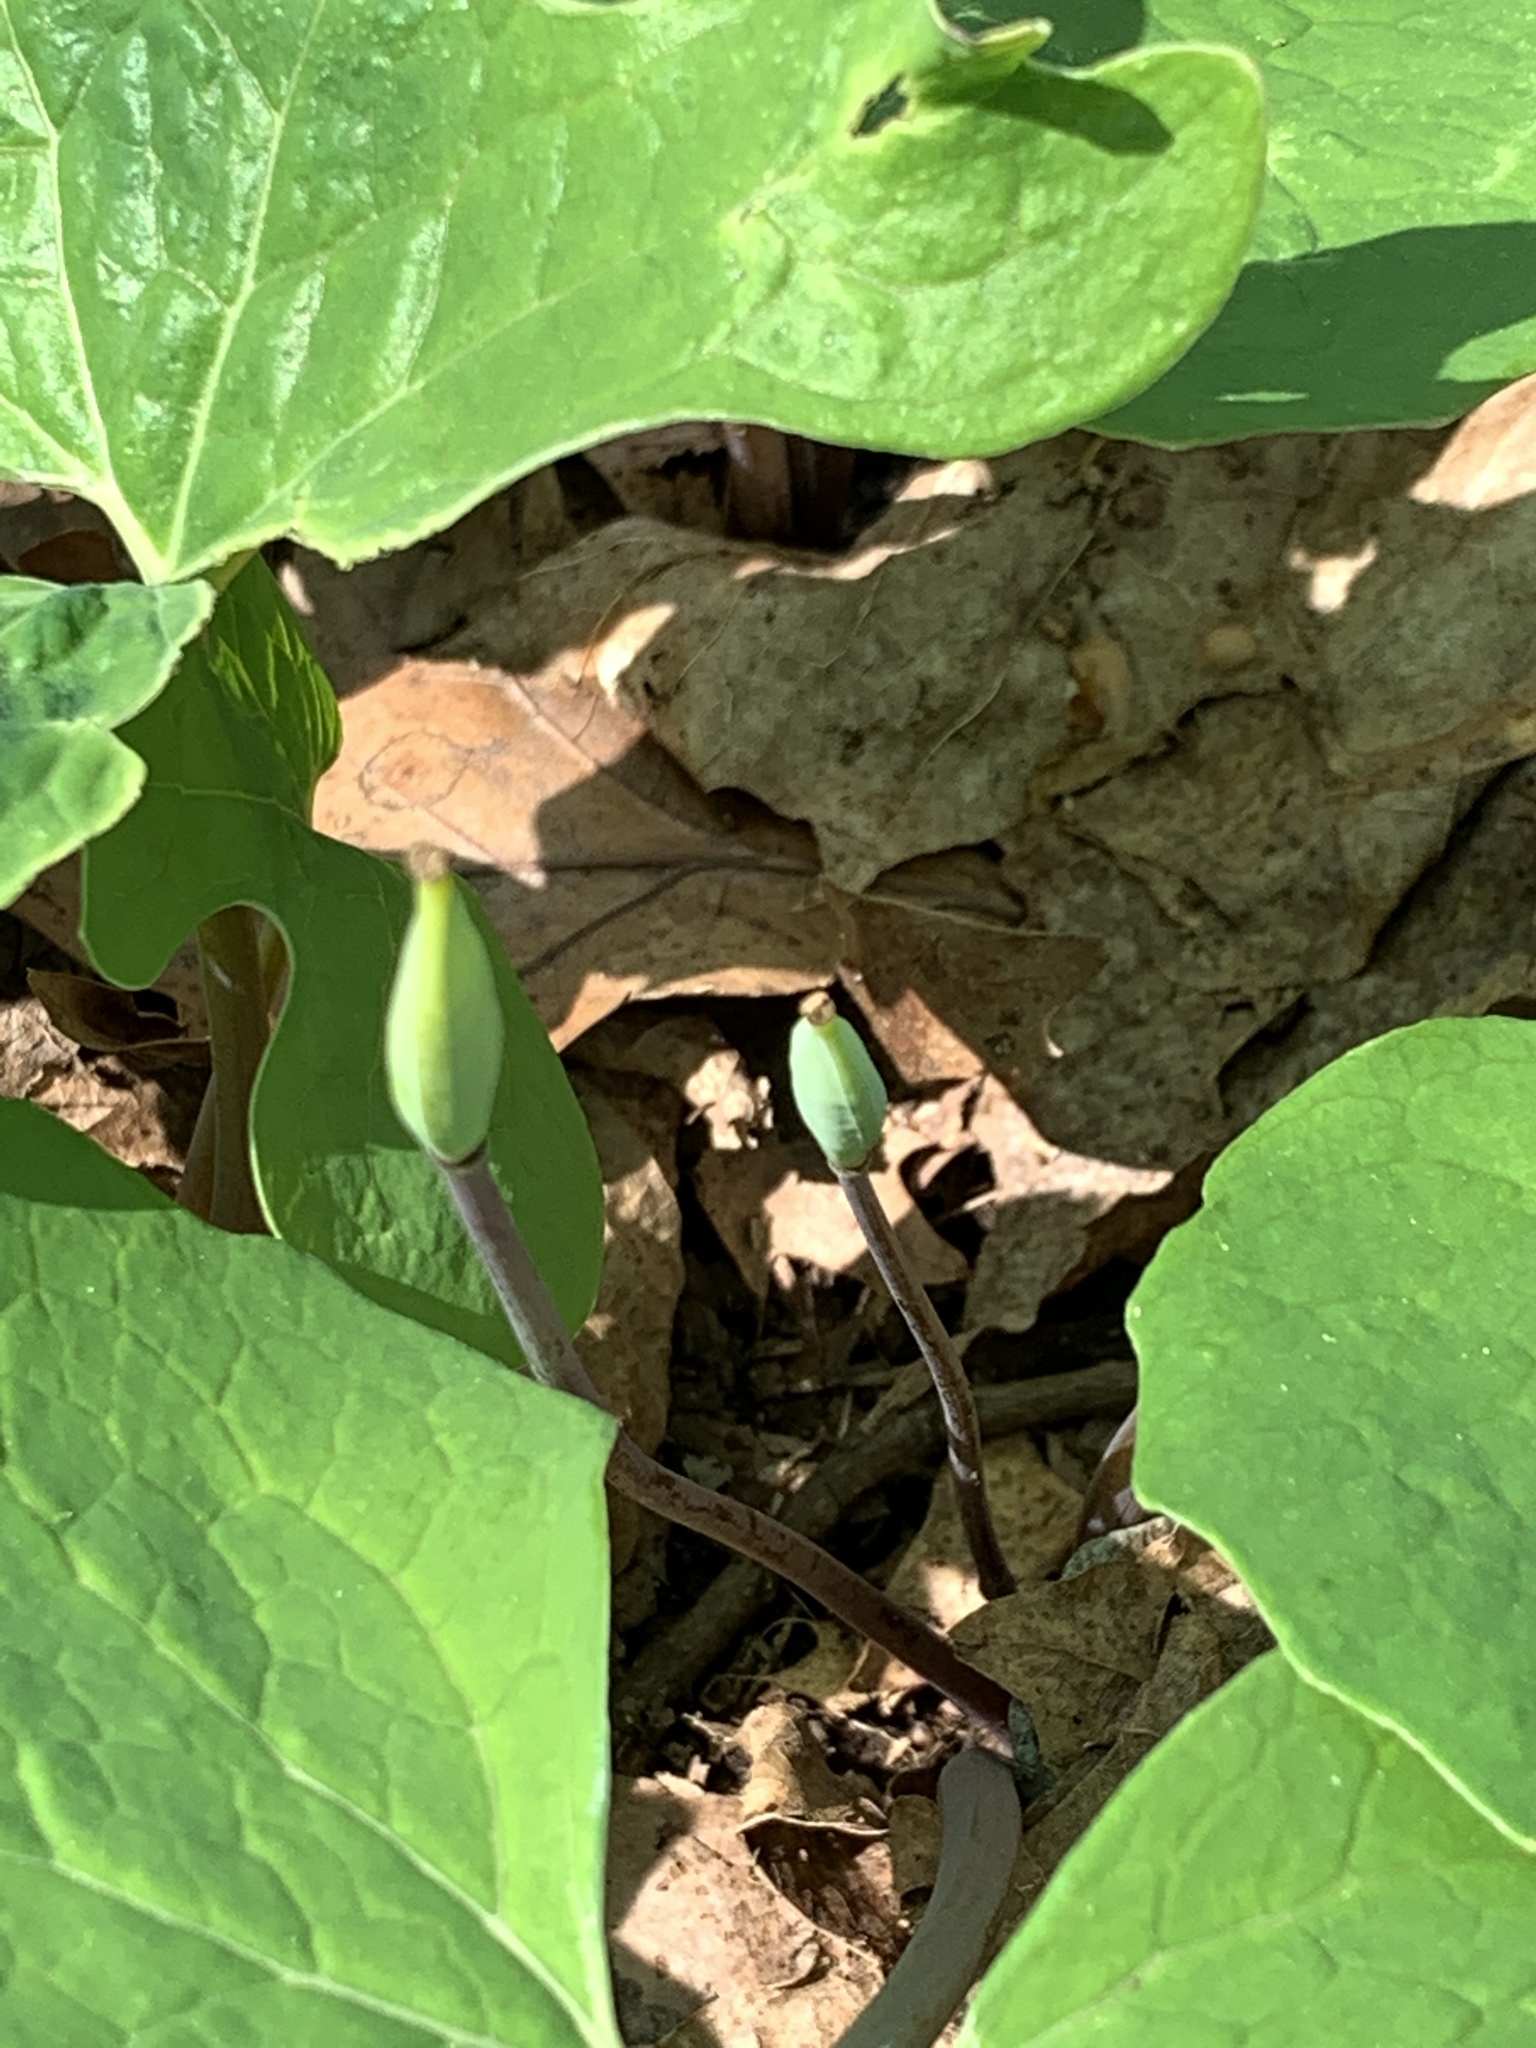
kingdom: Plantae
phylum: Tracheophyta
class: Magnoliopsida
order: Ranunculales
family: Papaveraceae
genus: Sanguinaria
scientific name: Sanguinaria canadensis
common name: Bloodroot
